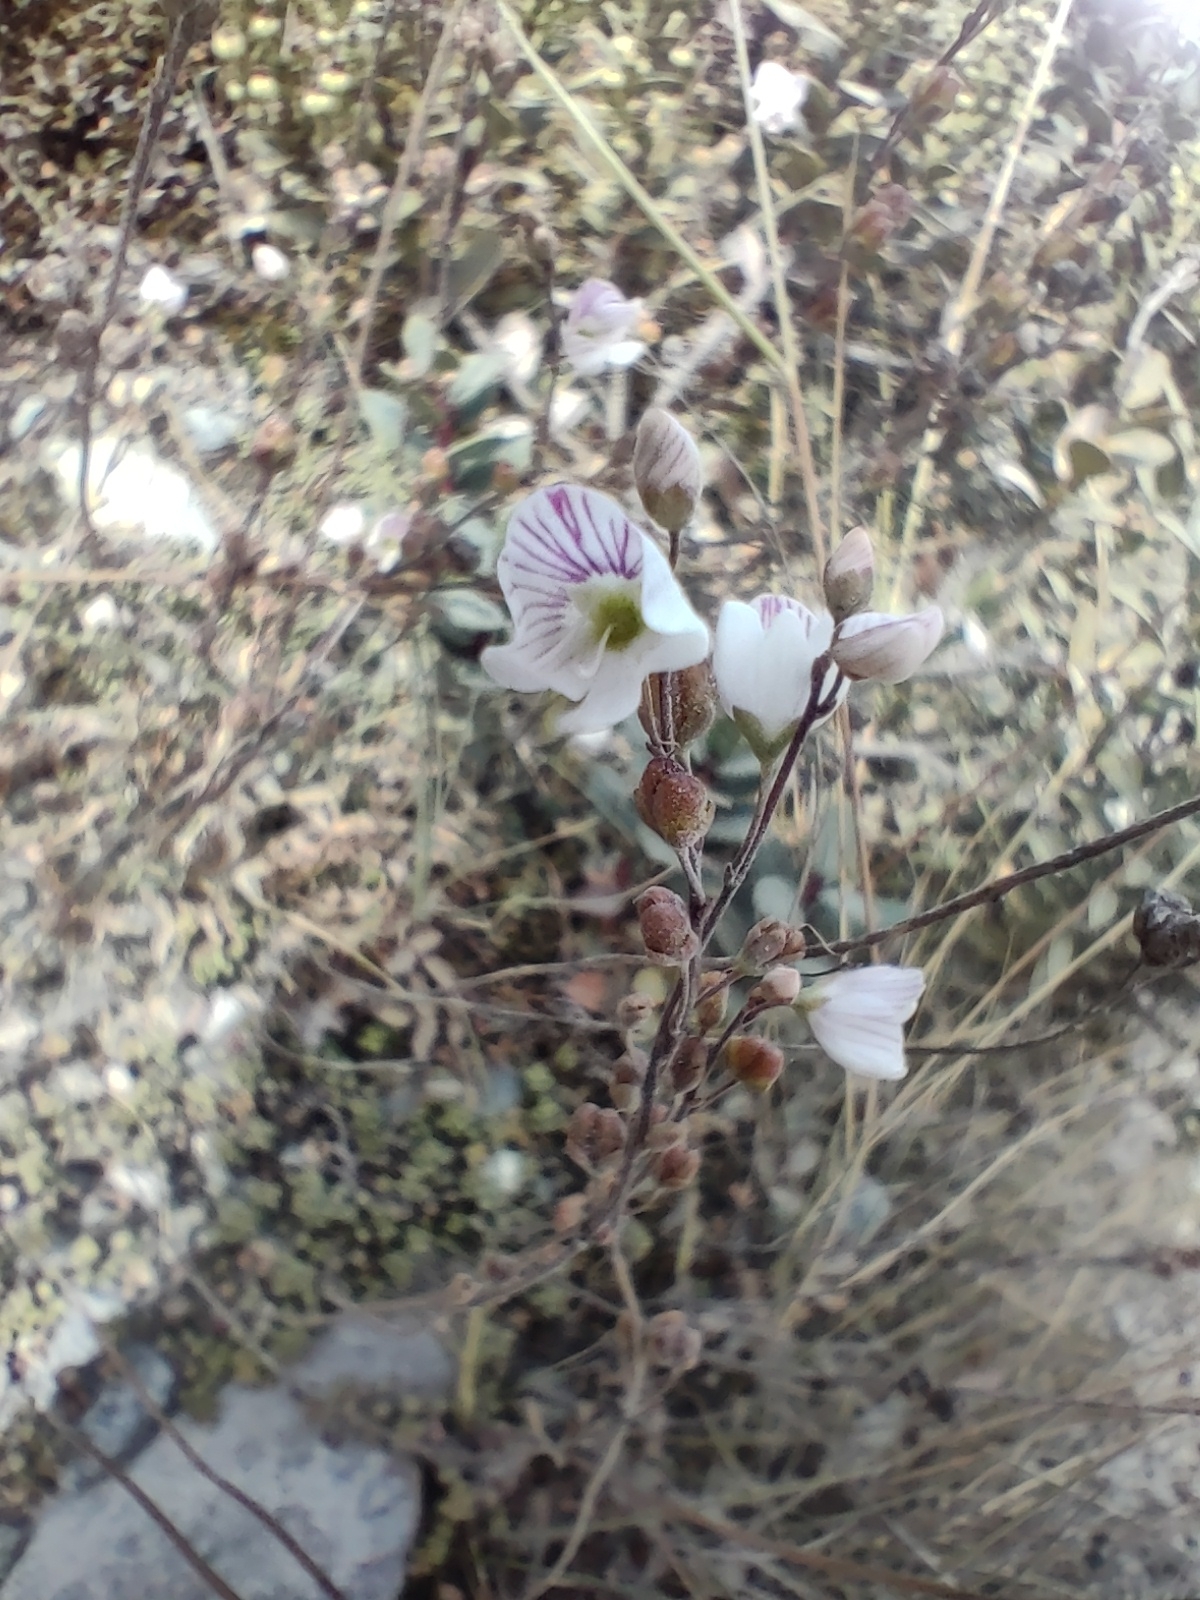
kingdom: Plantae
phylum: Tracheophyta
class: Magnoliopsida
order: Lamiales
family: Plantaginaceae
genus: Veronica
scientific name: Veronica decora
